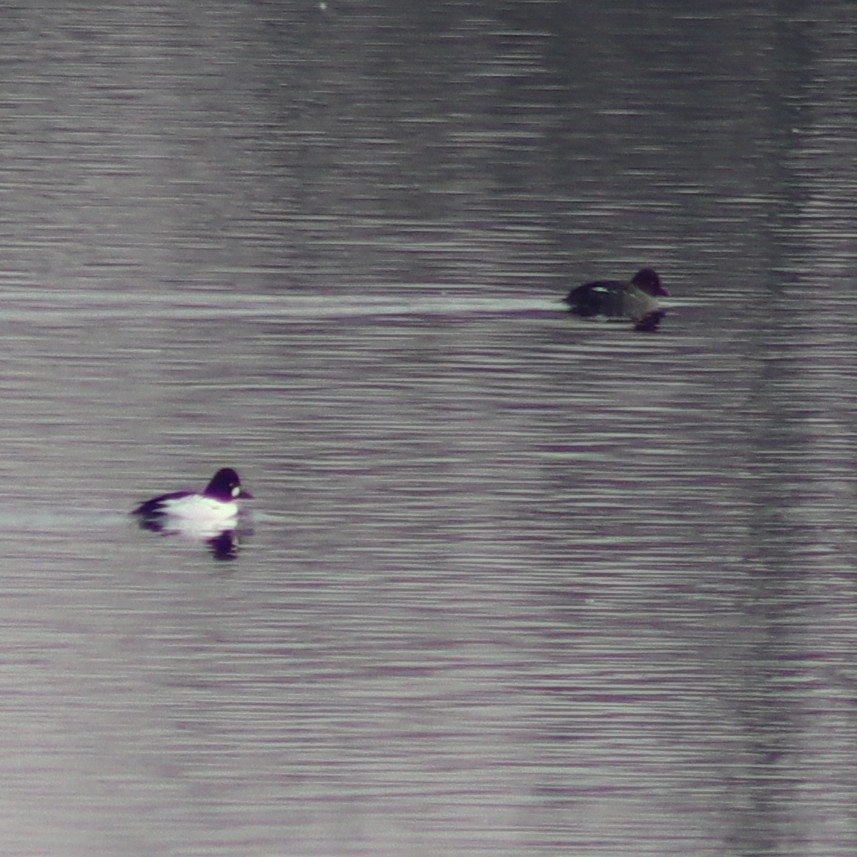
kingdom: Animalia
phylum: Chordata
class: Aves
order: Anseriformes
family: Anatidae
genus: Bucephala
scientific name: Bucephala clangula
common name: Common goldeneye
